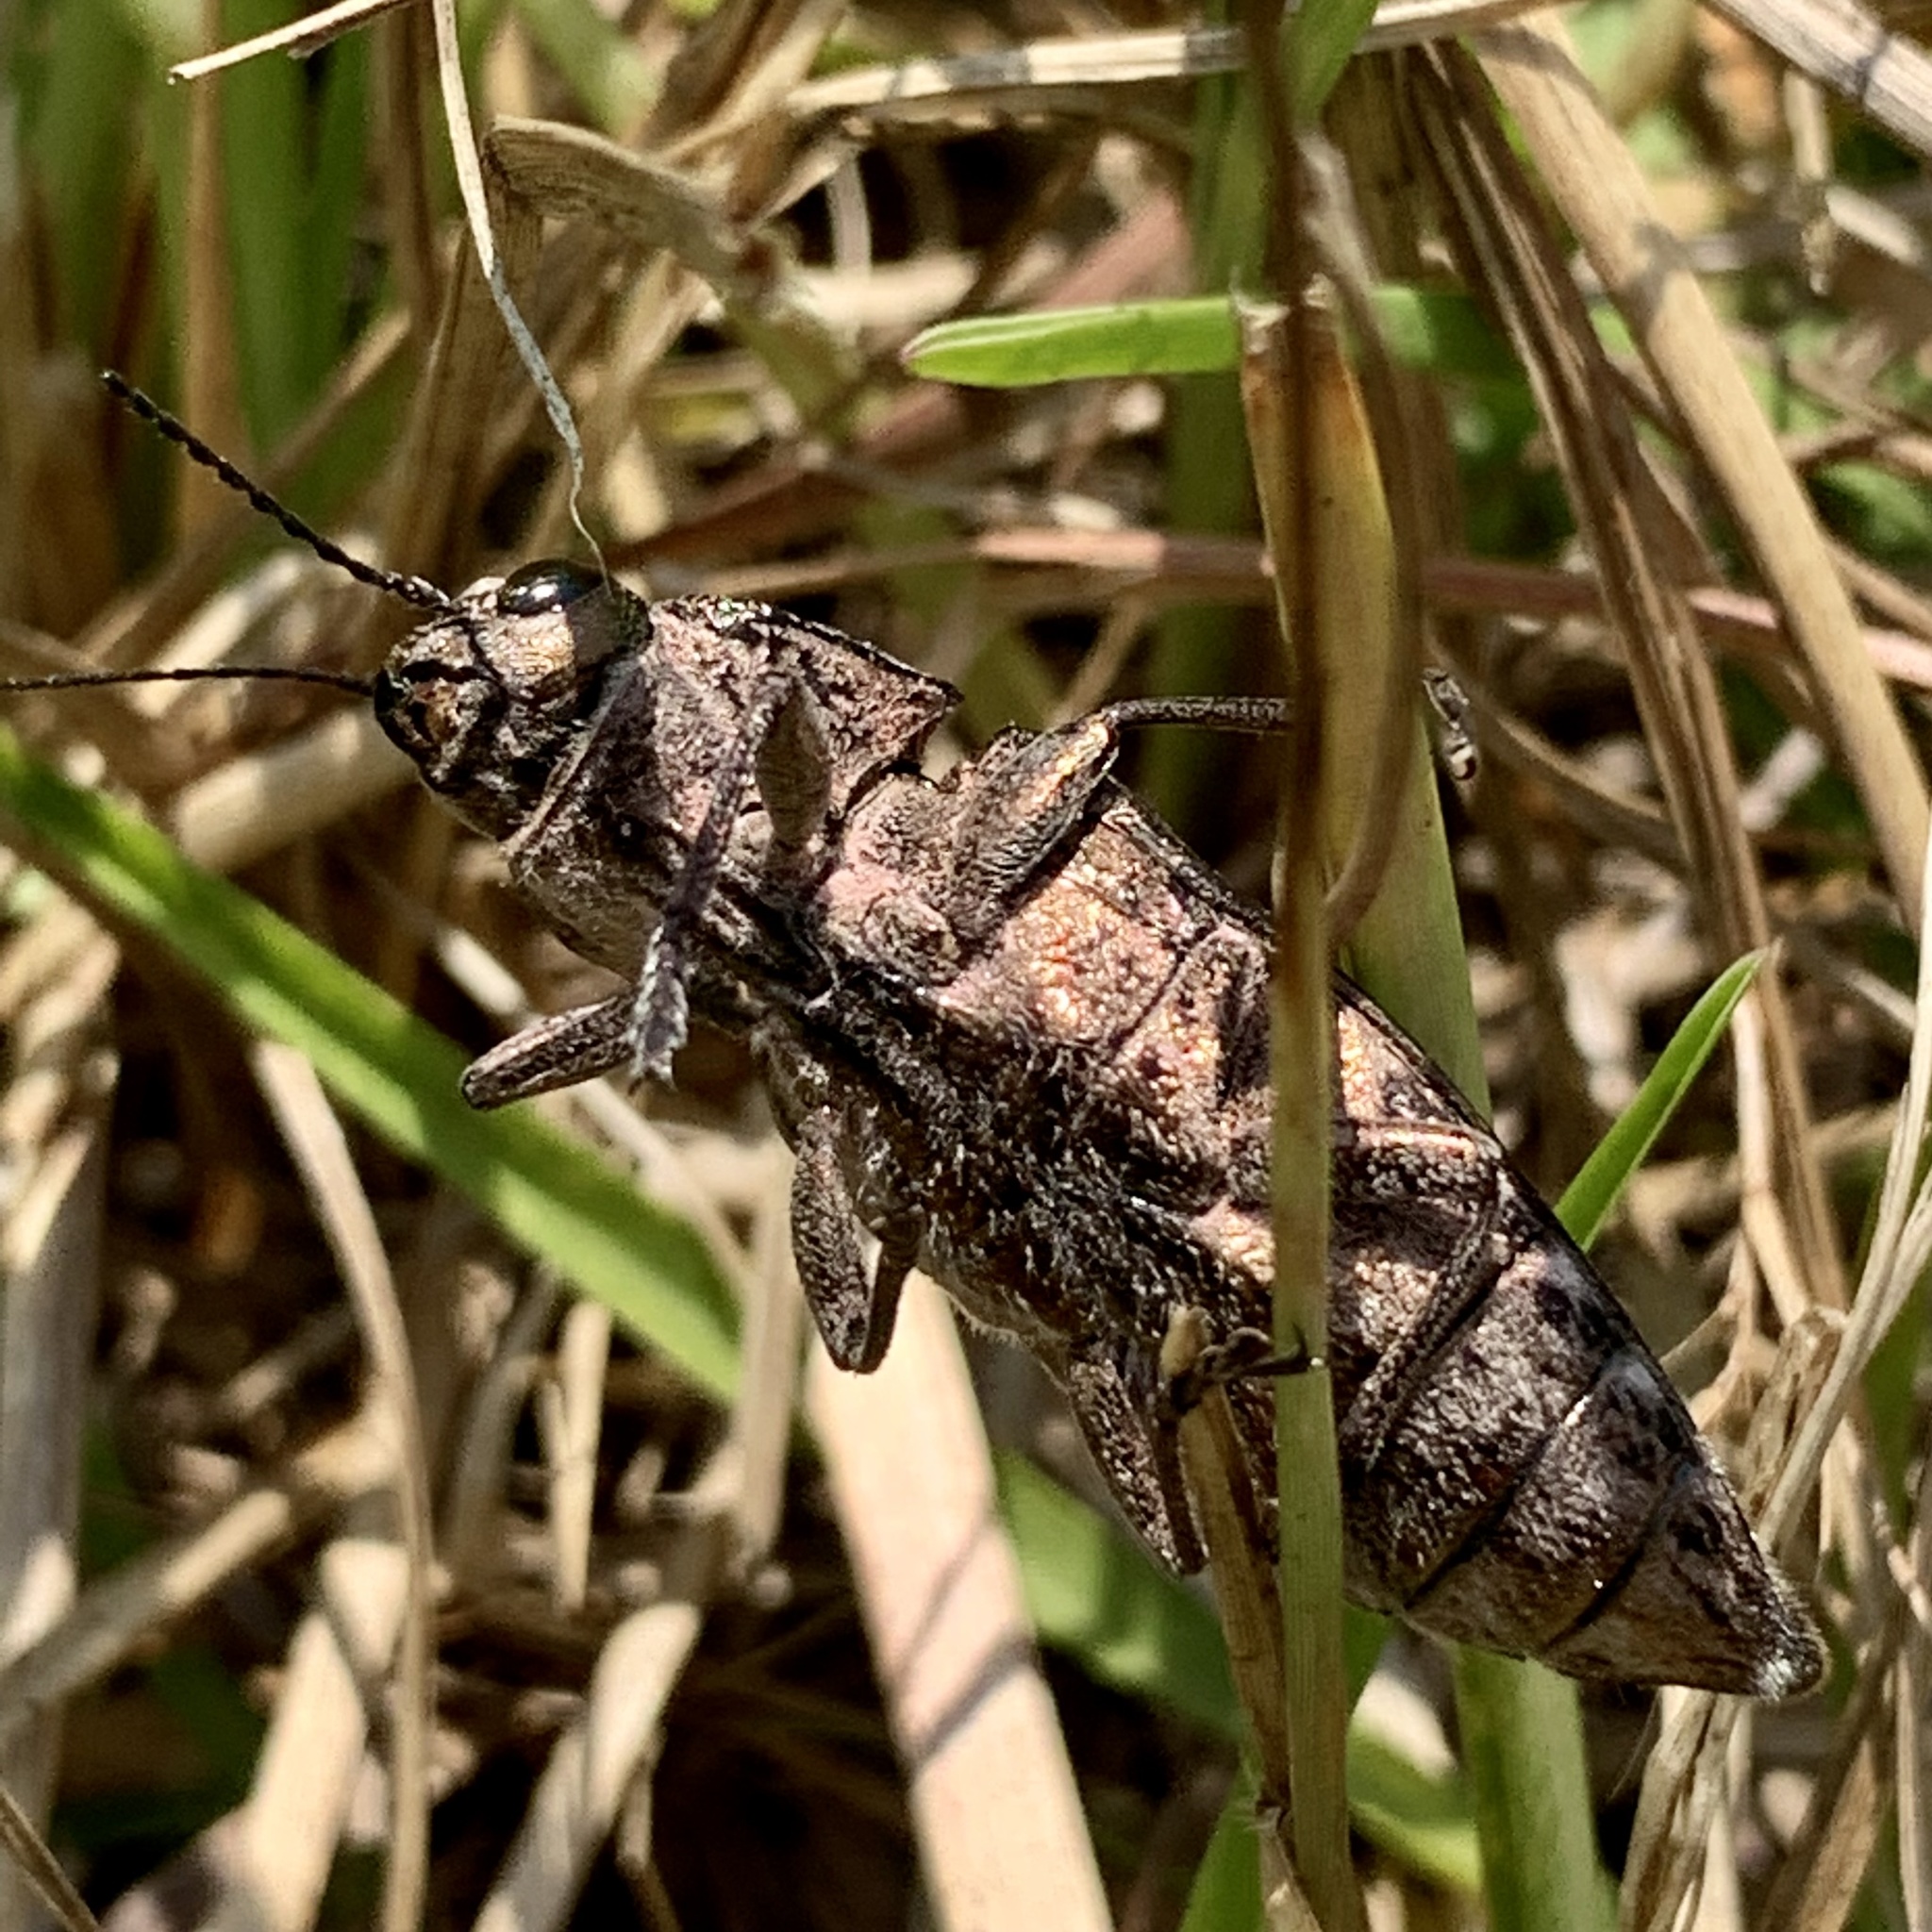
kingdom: Animalia
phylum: Arthropoda
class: Insecta
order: Coleoptera
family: Buprestidae
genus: Chalcophora
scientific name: Chalcophora virginiensis
